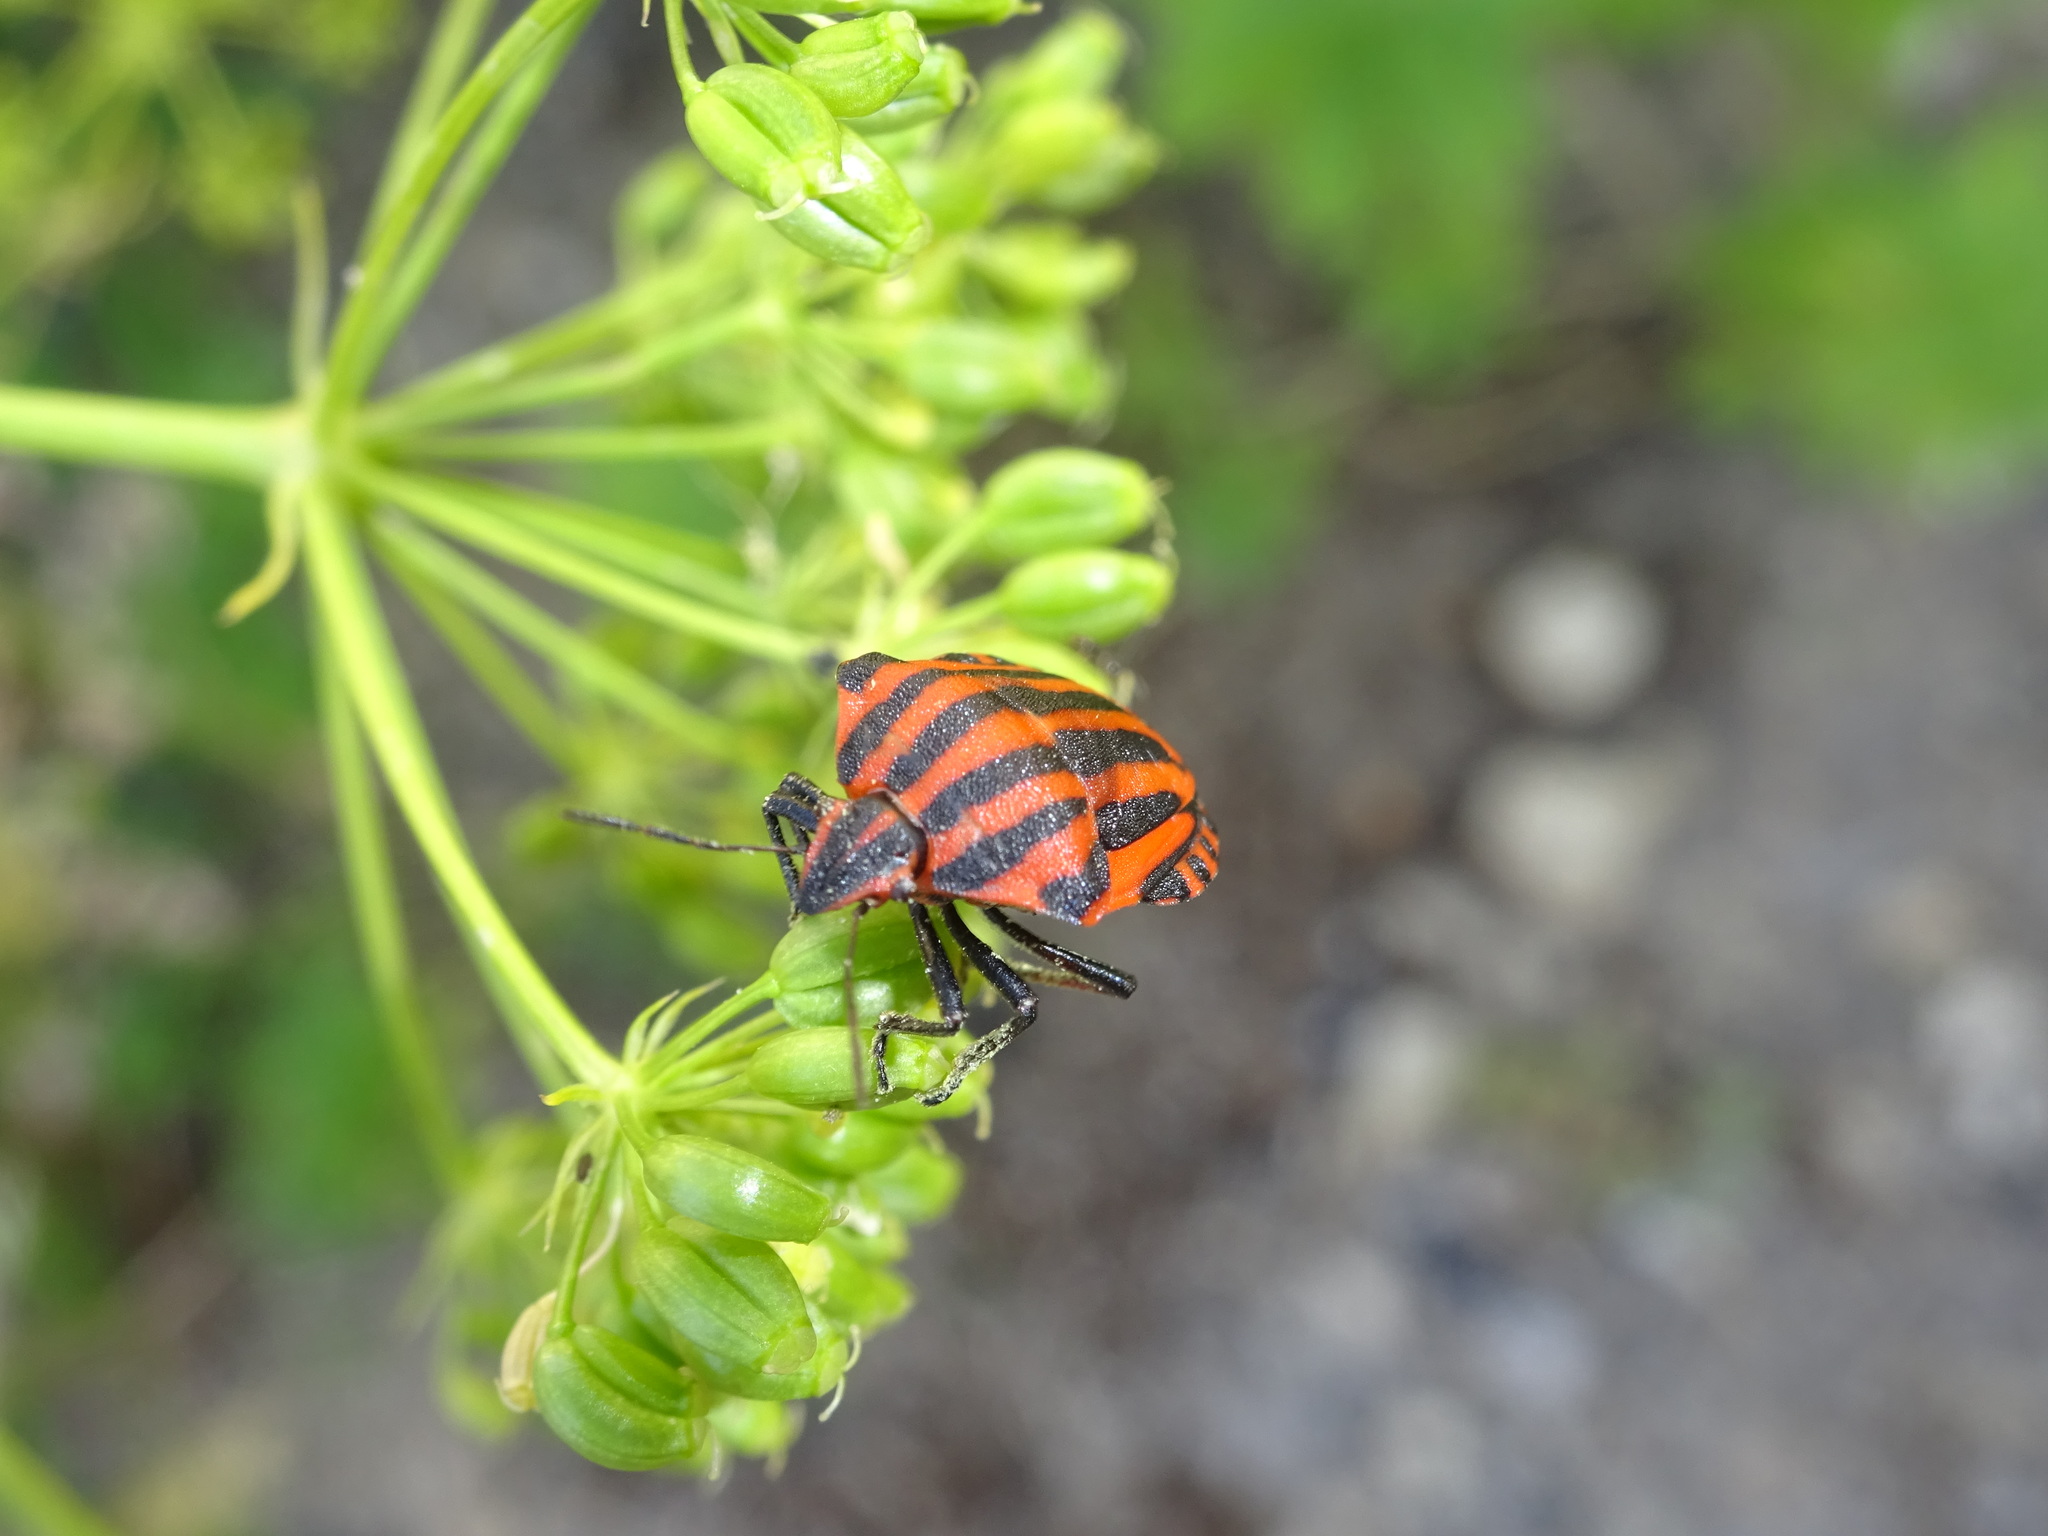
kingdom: Animalia
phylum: Arthropoda
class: Insecta
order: Hemiptera
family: Pentatomidae
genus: Graphosoma
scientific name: Graphosoma italicum
